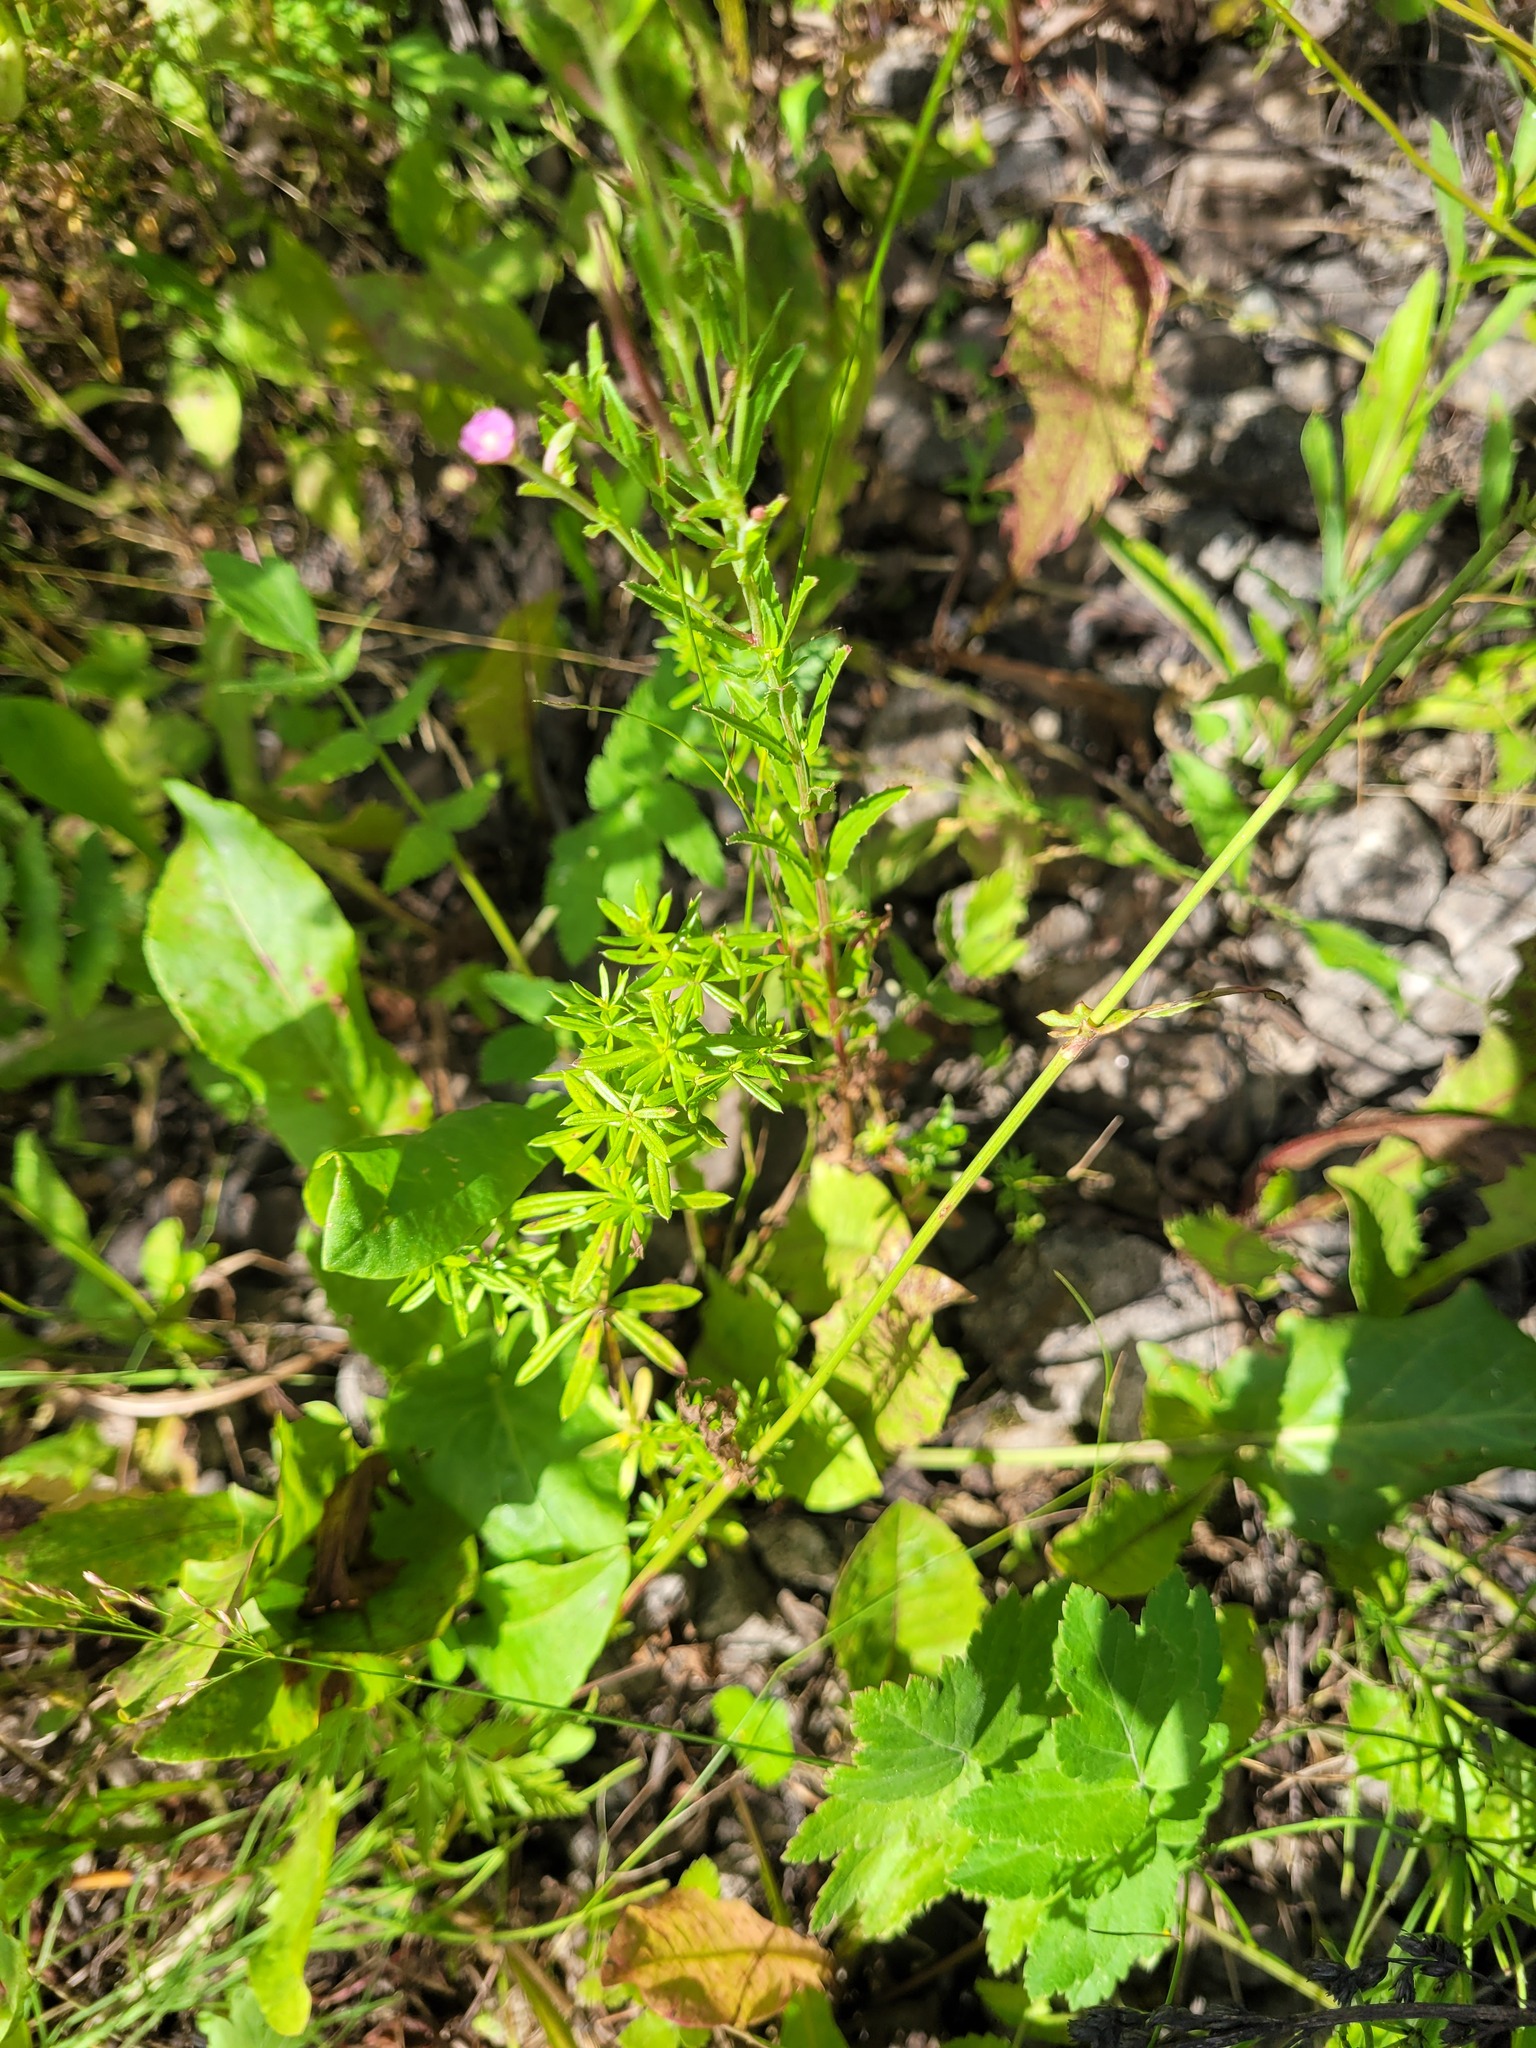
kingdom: Plantae
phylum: Tracheophyta
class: Magnoliopsida
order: Gentianales
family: Rubiaceae
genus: Galium
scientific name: Galium mollugo
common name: Hedge bedstraw
